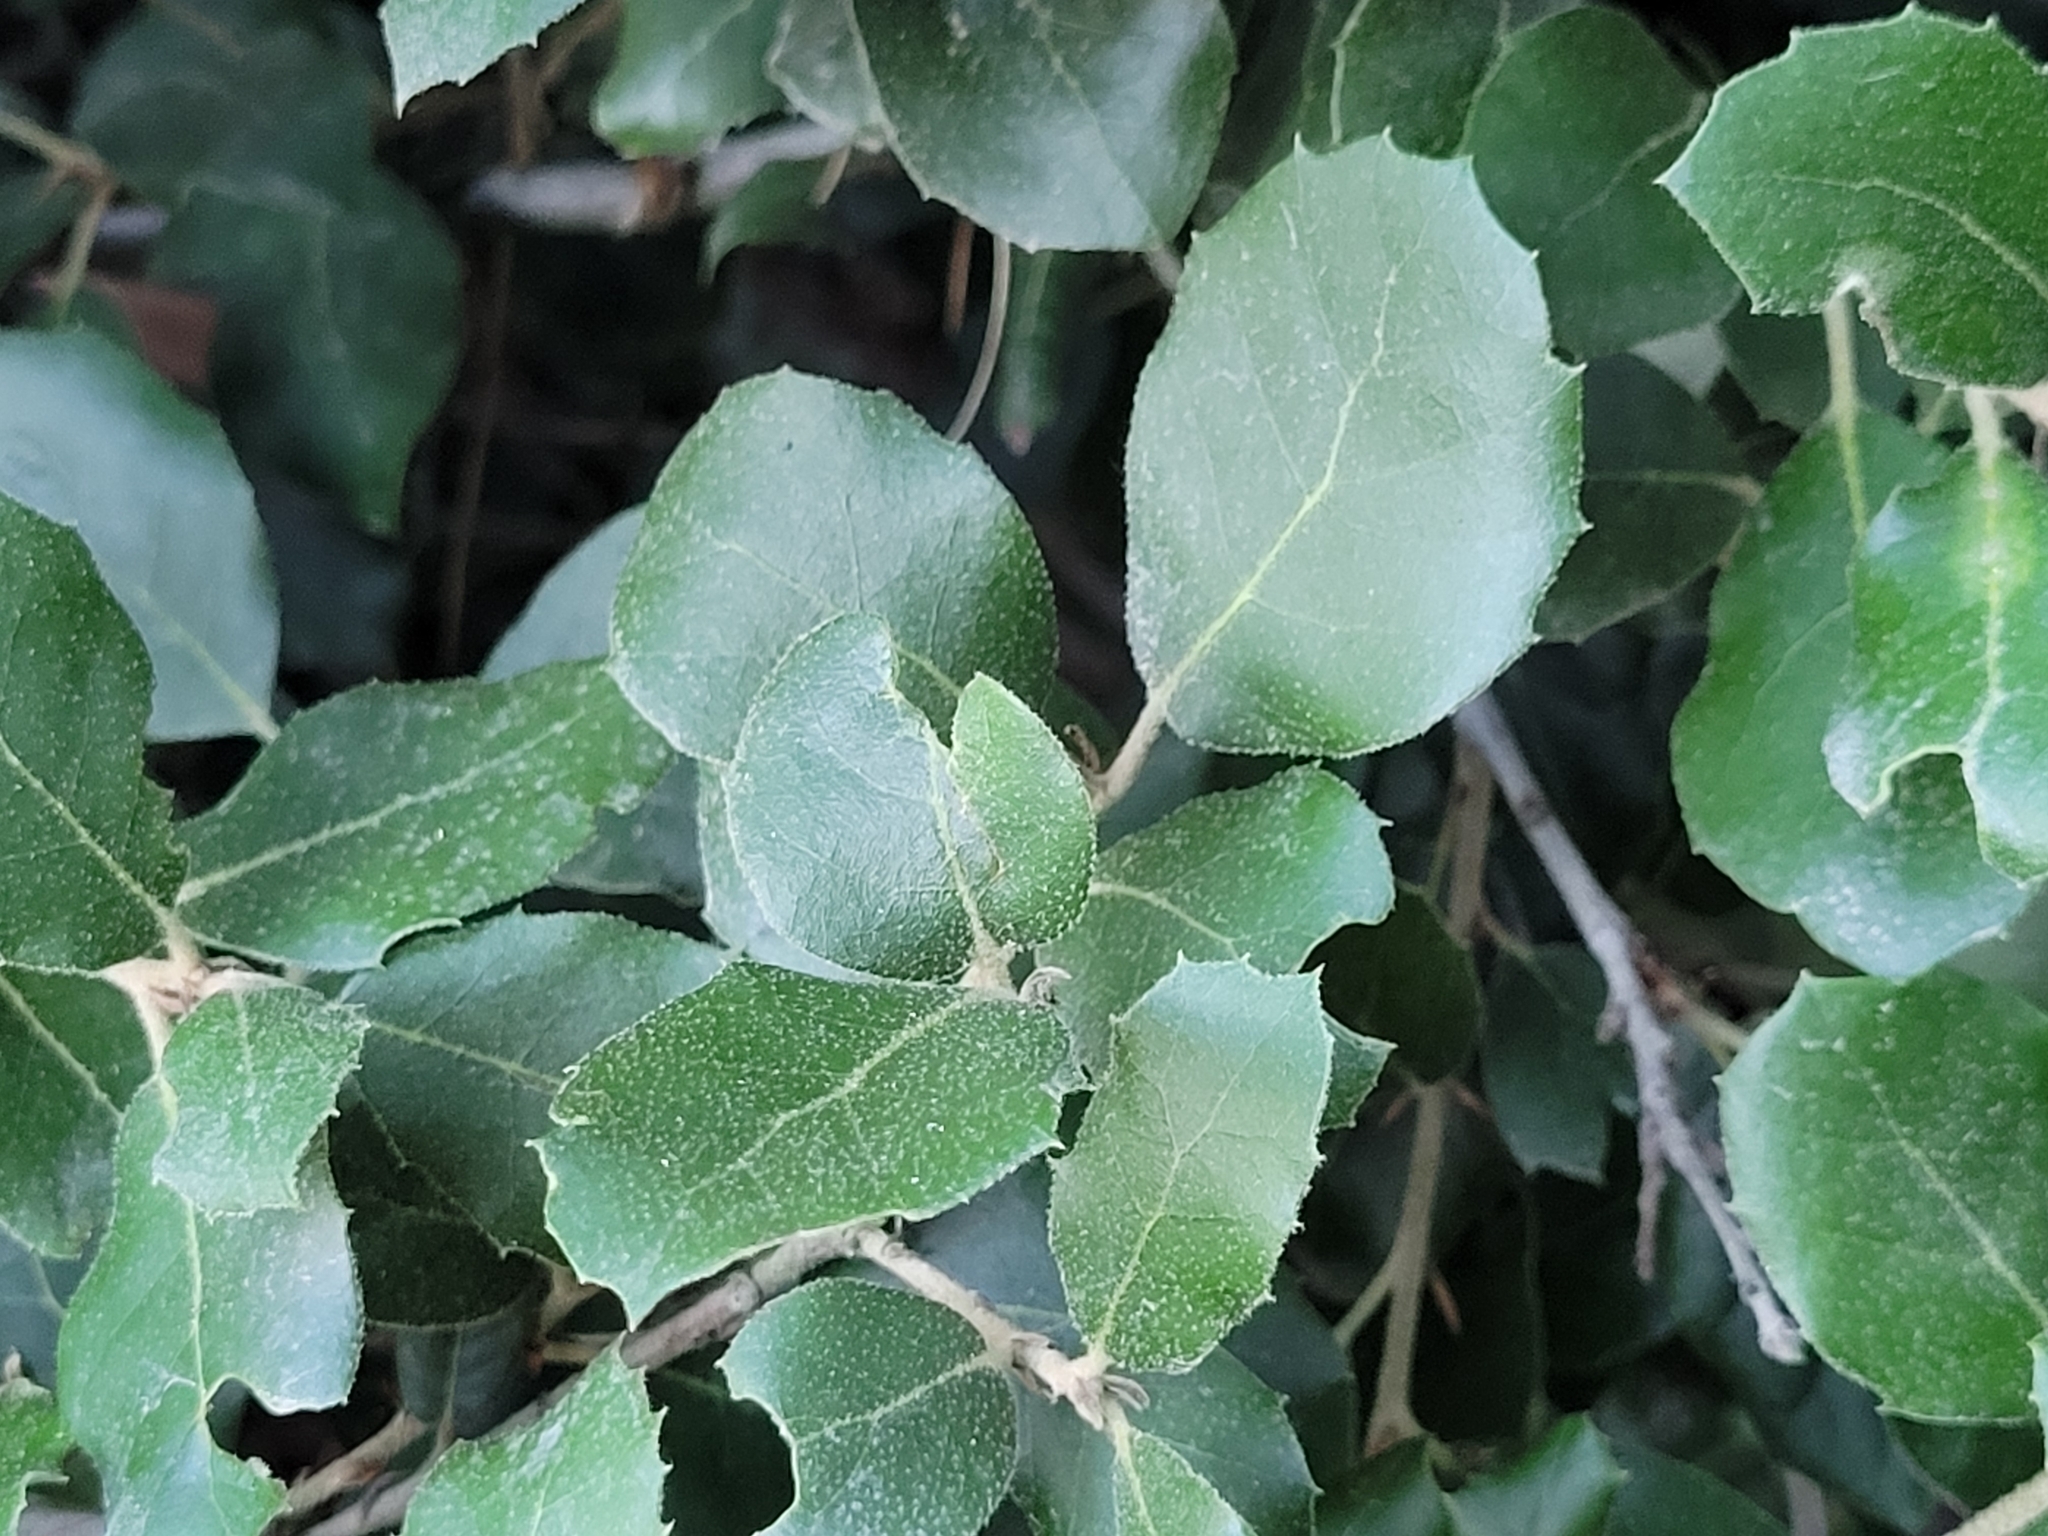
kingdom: Plantae
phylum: Tracheophyta
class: Magnoliopsida
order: Fagales
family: Fagaceae
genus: Quercus
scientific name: Quercus ilex
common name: Evergreen oak
